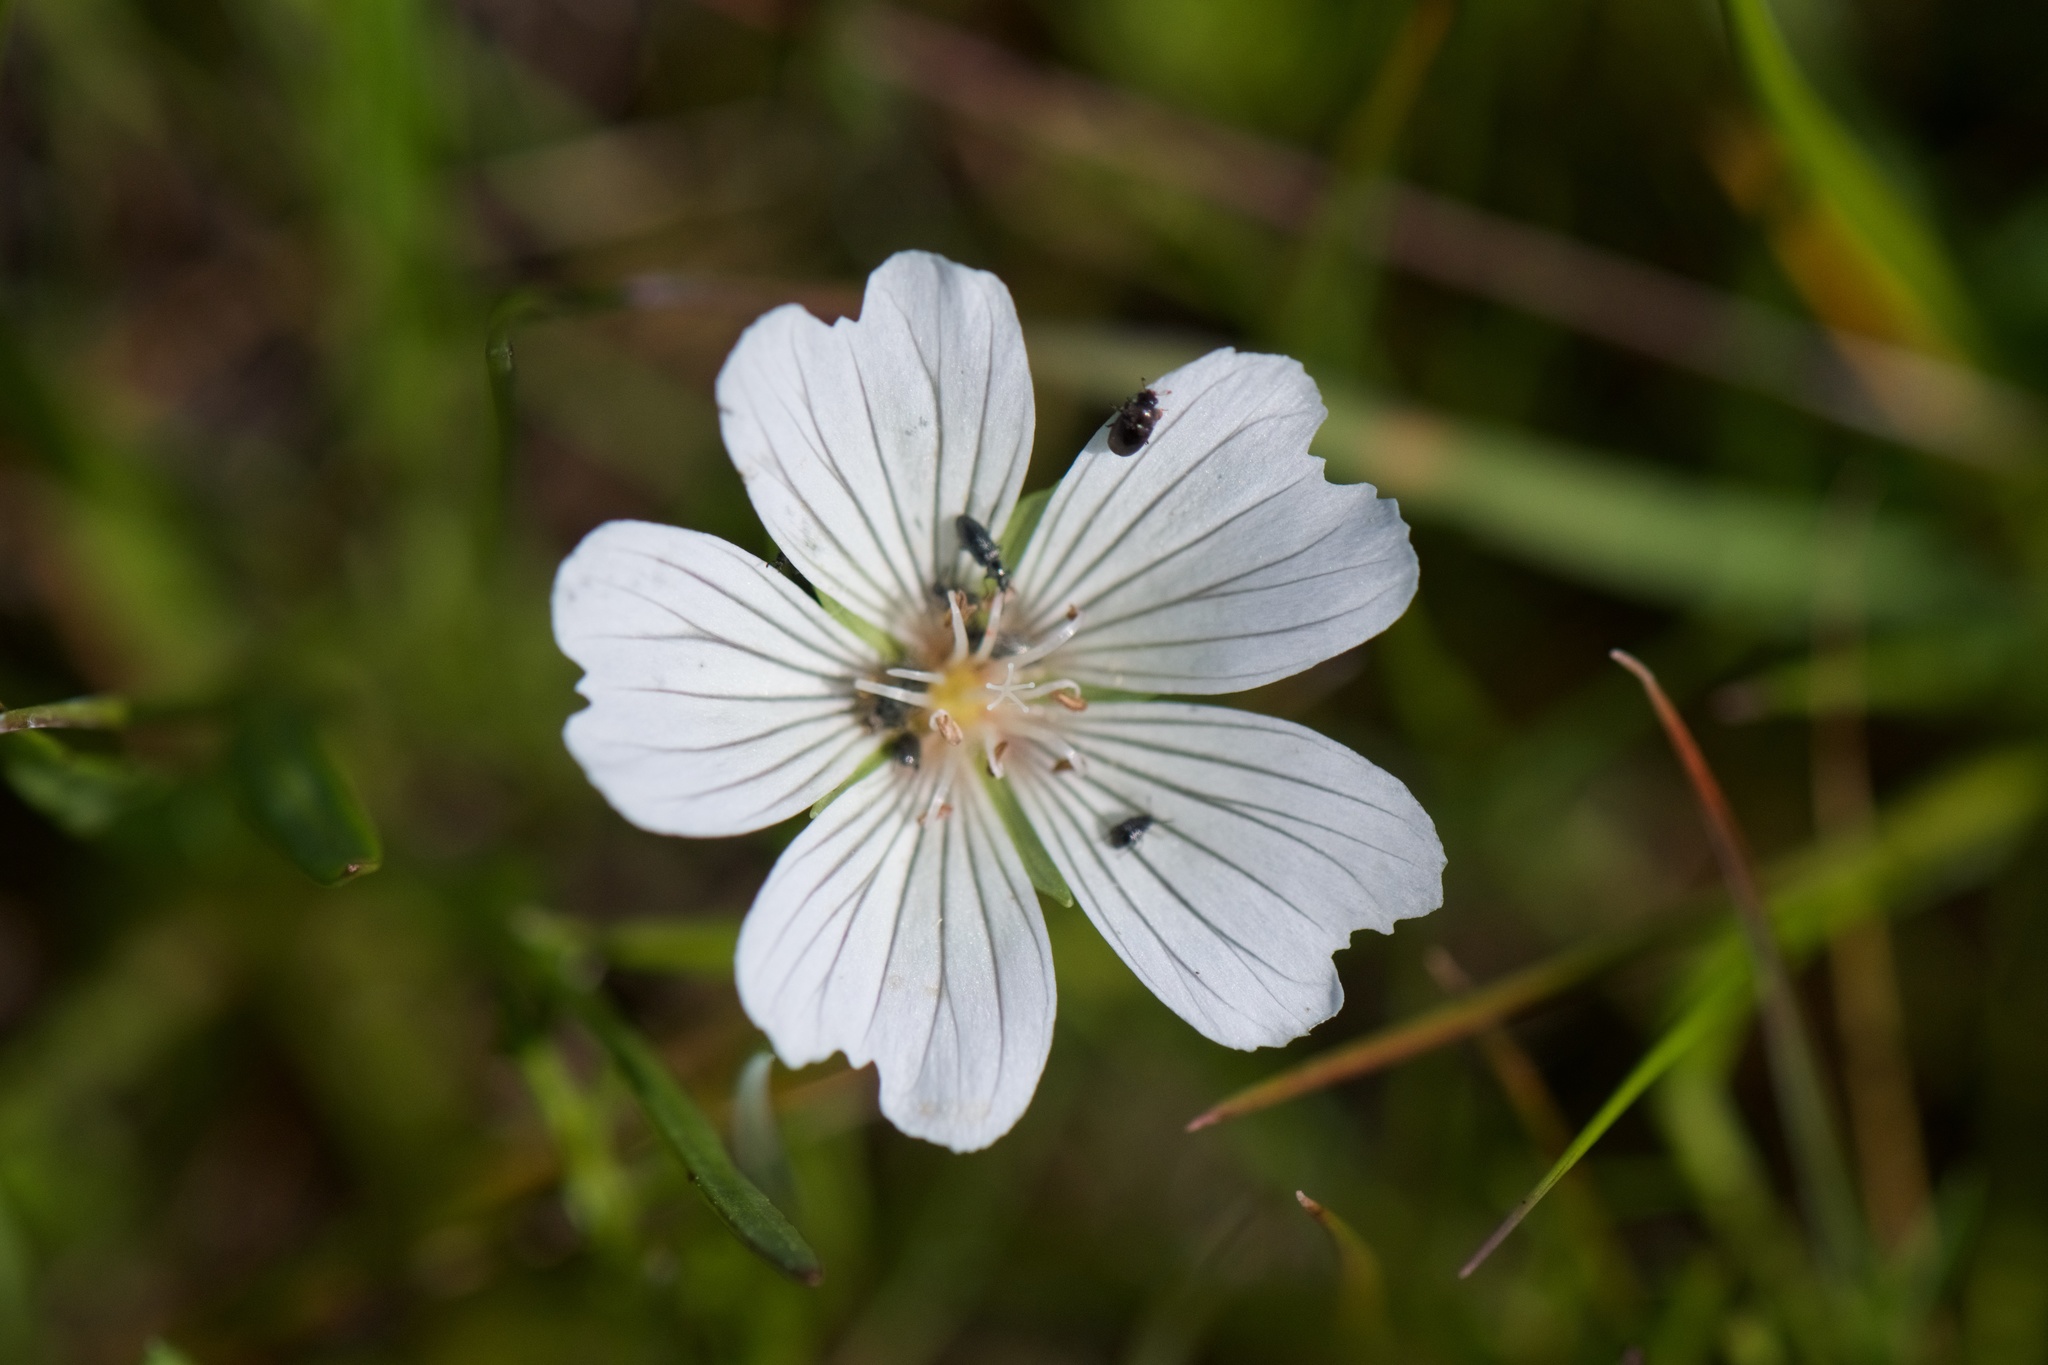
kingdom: Plantae
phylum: Tracheophyta
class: Magnoliopsida
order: Brassicales
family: Limnanthaceae
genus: Limnanthes
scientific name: Limnanthes douglasii
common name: Meadow-foam
